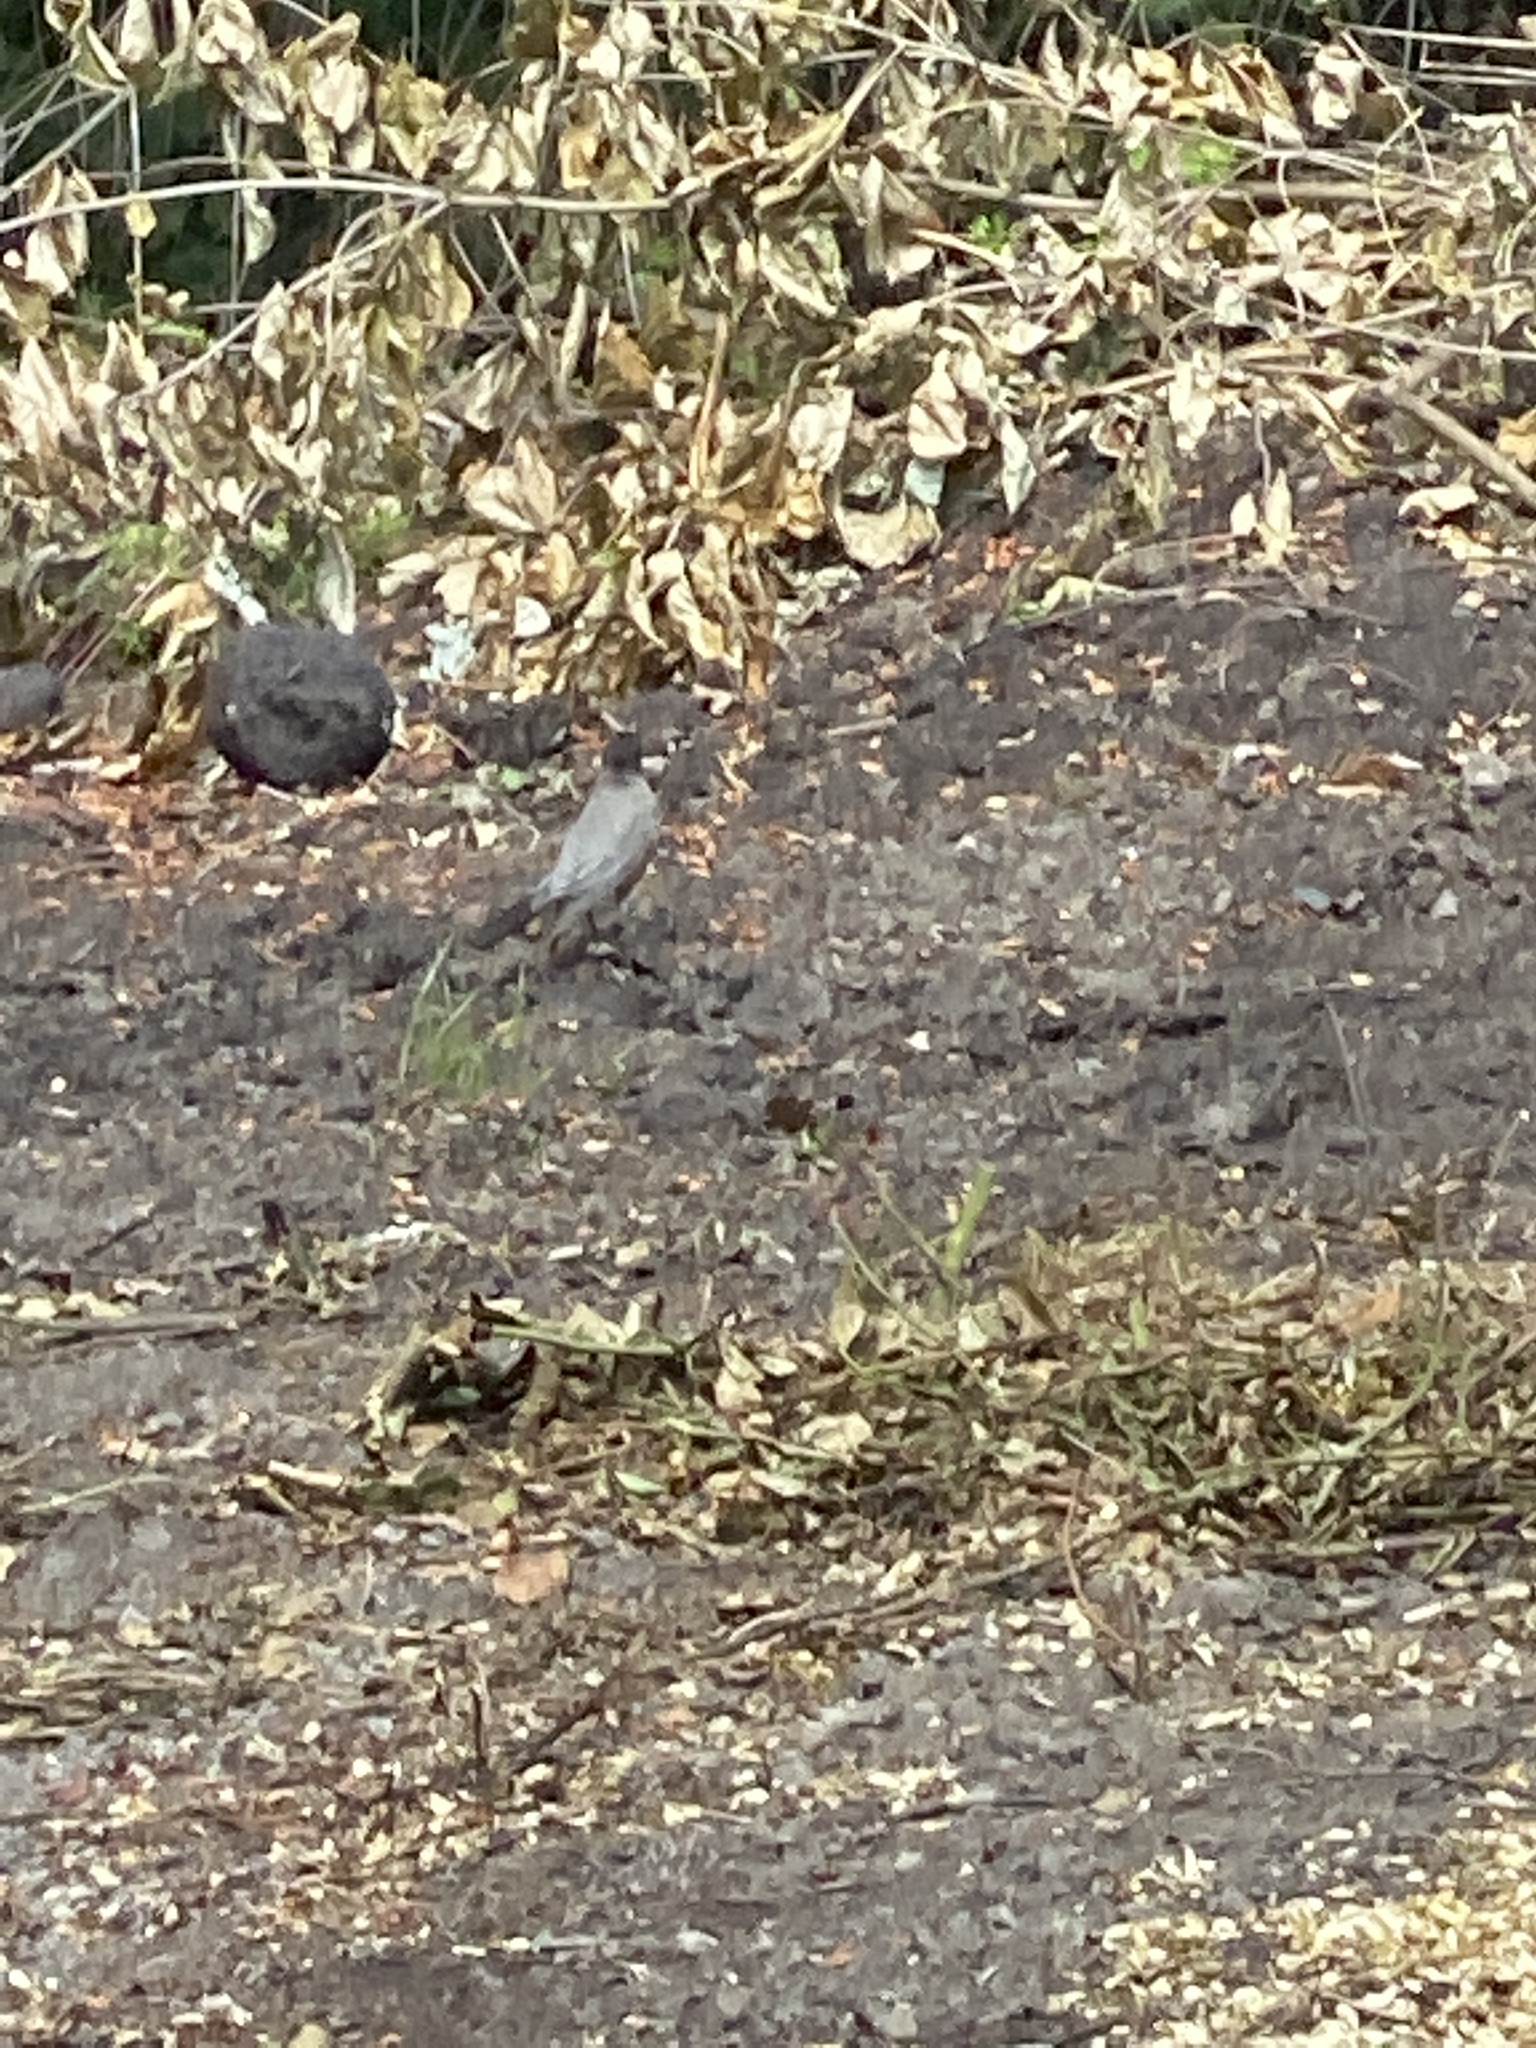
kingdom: Animalia
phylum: Chordata
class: Aves
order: Passeriformes
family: Turdidae
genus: Turdus
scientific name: Turdus migratorius
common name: American robin
